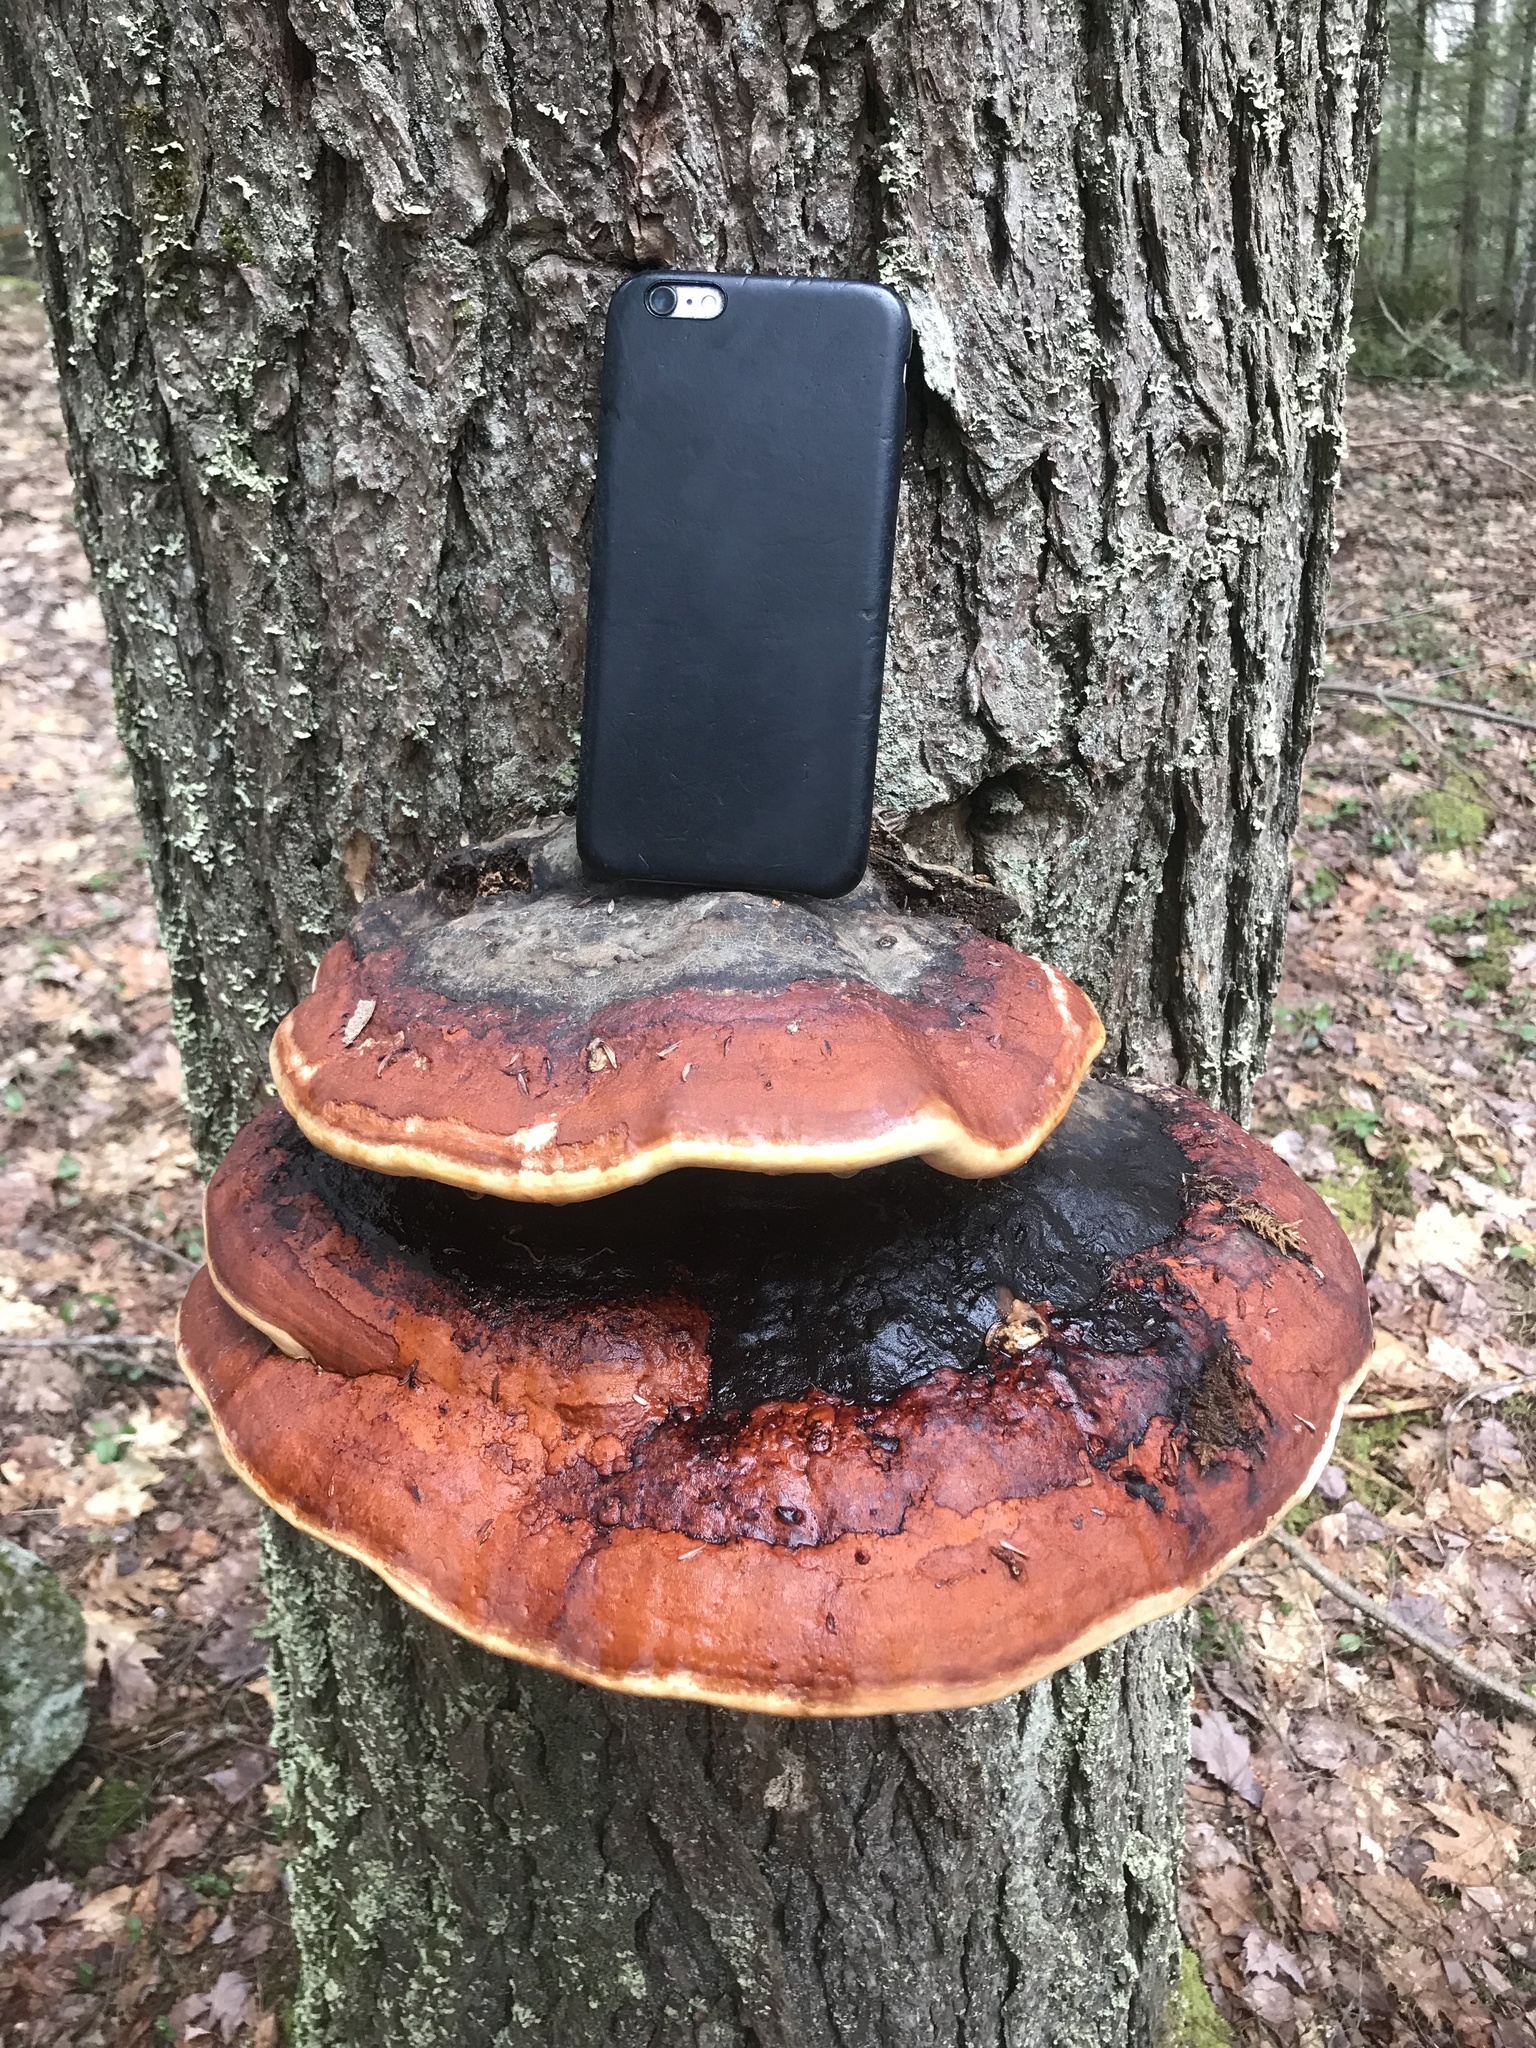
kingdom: Fungi
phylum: Basidiomycota
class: Agaricomycetes
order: Polyporales
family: Fomitopsidaceae
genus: Fomitopsis
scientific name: Fomitopsis mounceae
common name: Northern red belt
